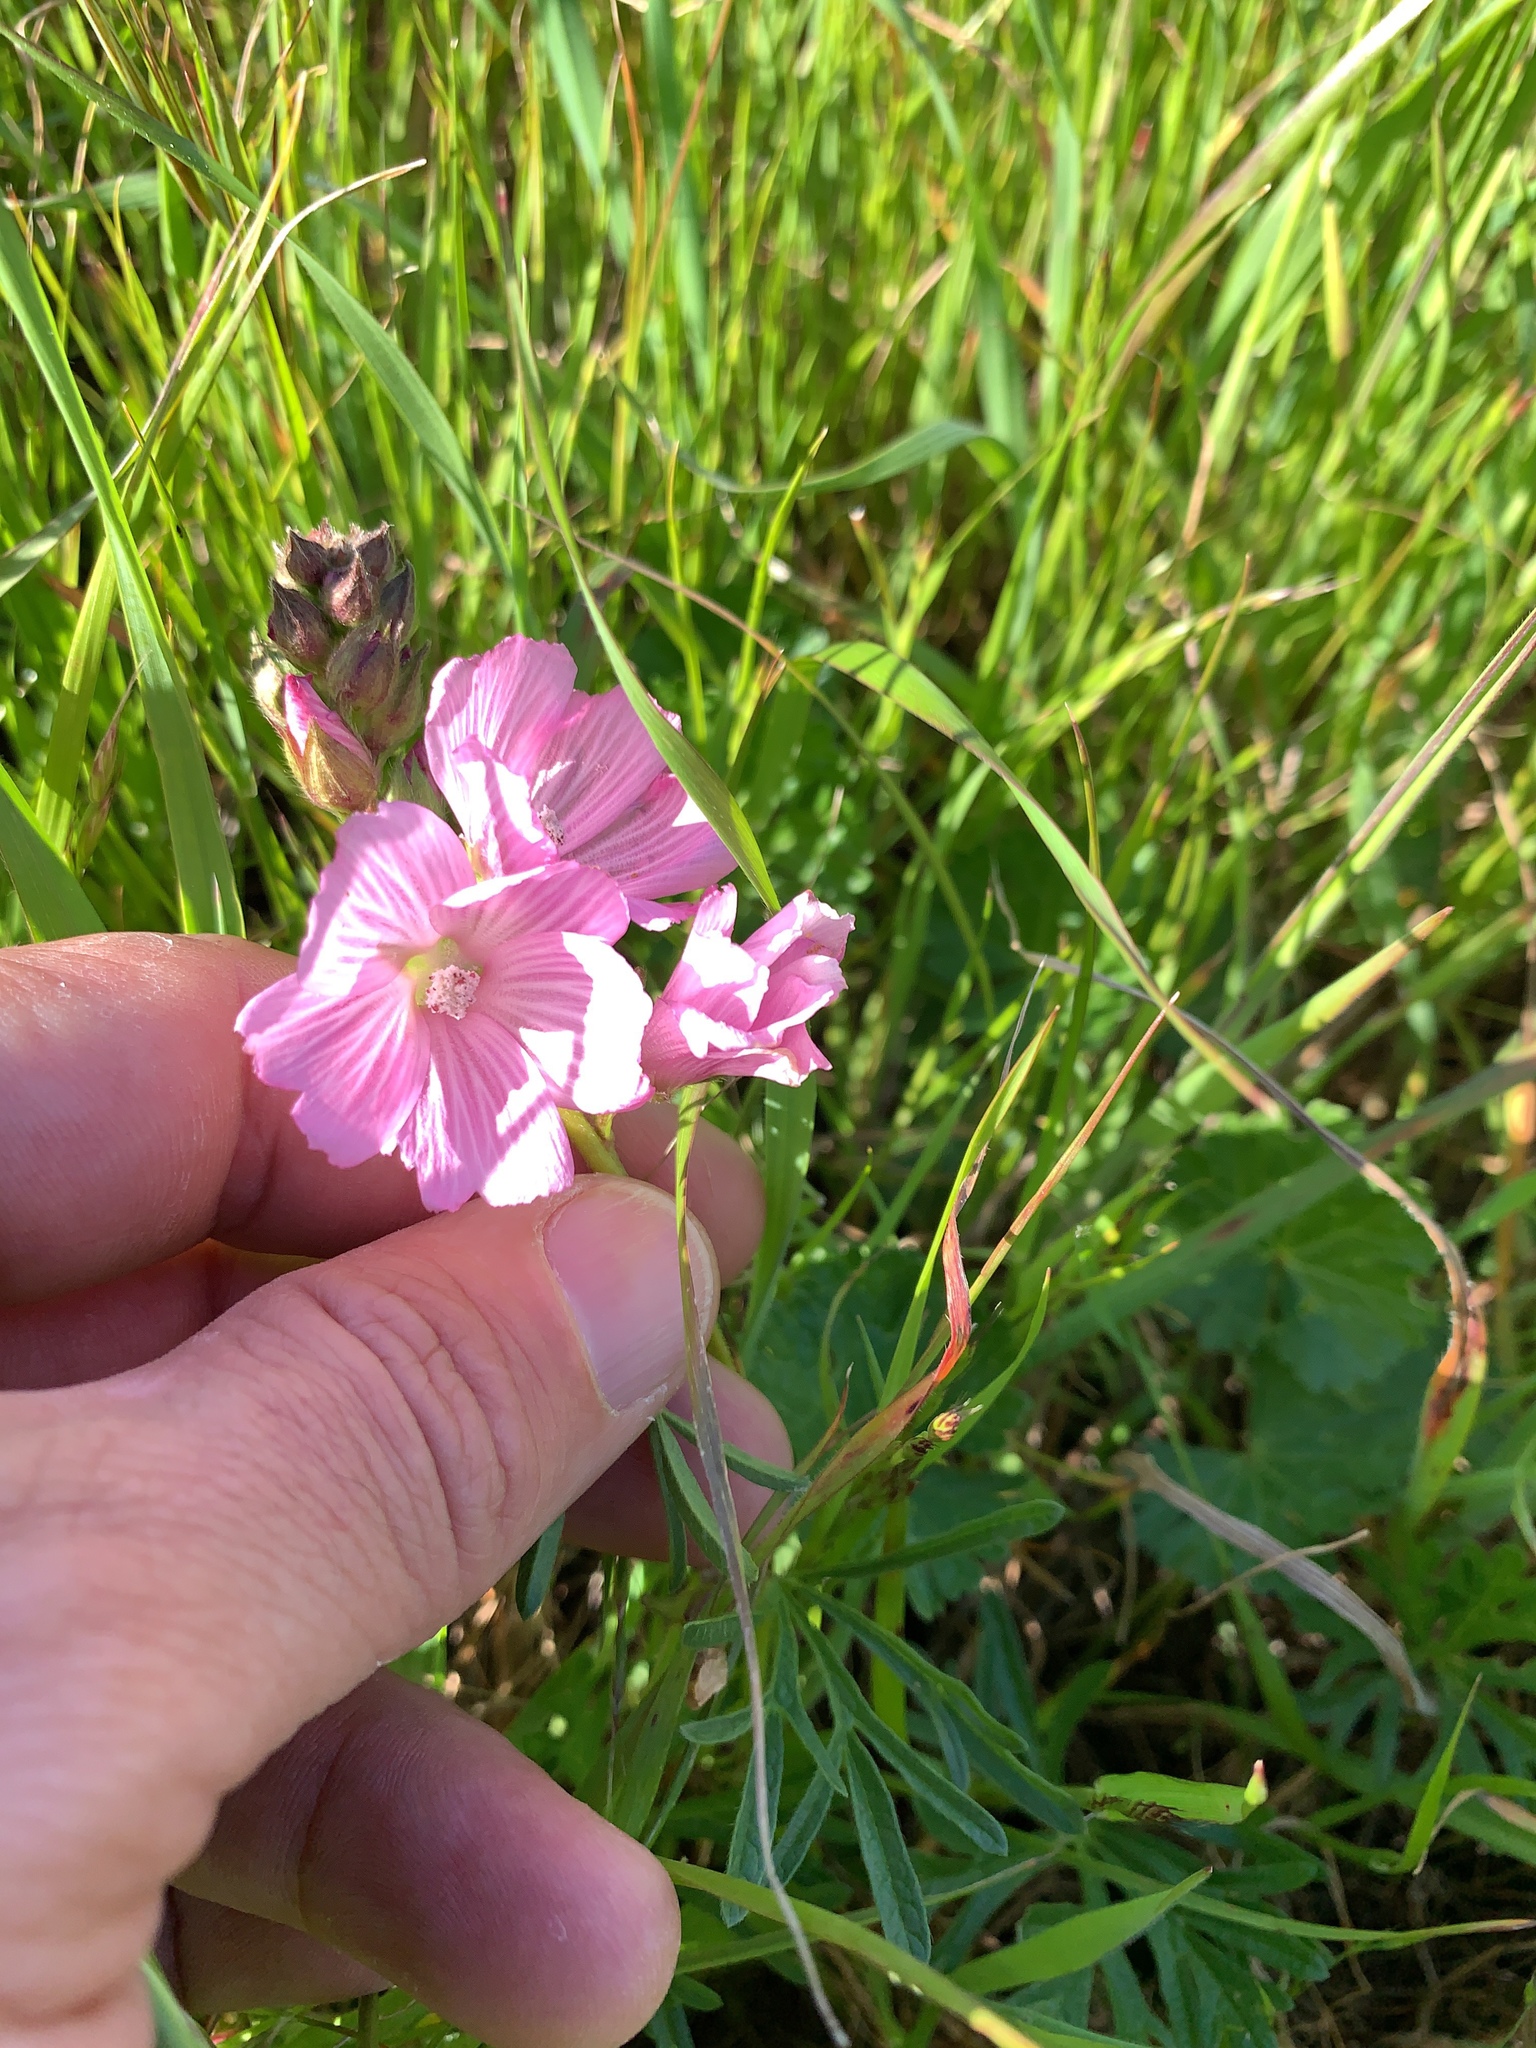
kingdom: Plantae
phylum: Tracheophyta
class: Magnoliopsida
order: Malvales
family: Malvaceae
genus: Sidalcea
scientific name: Sidalcea malviflora
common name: Greek mallow
